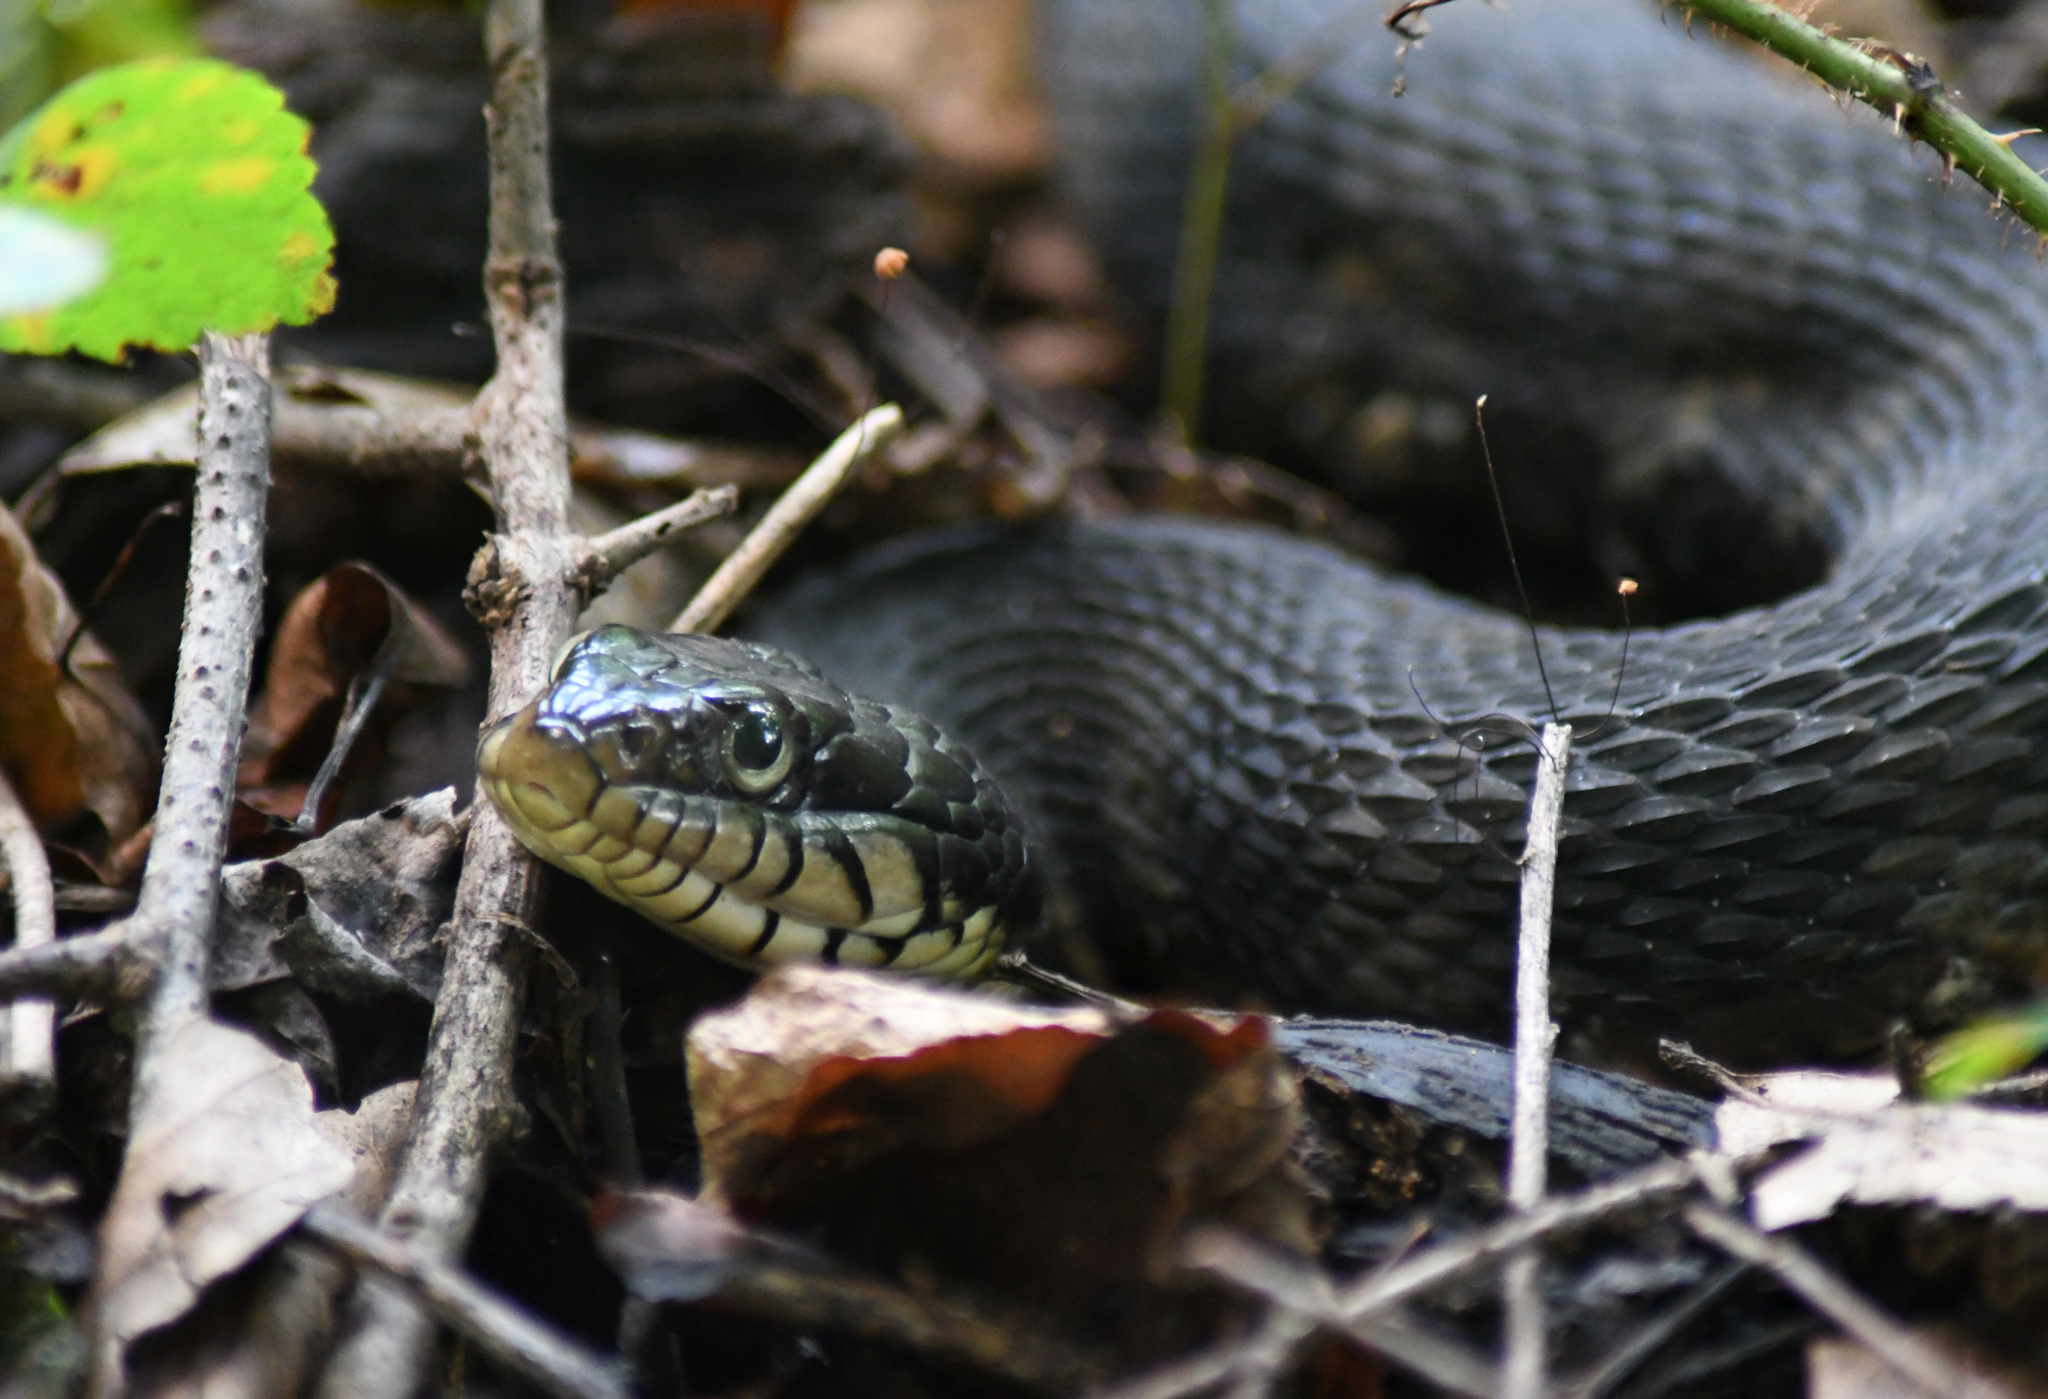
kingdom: Animalia
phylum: Chordata
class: Squamata
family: Colubridae
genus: Nerodia
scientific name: Nerodia fasciata
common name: Southern water snake
